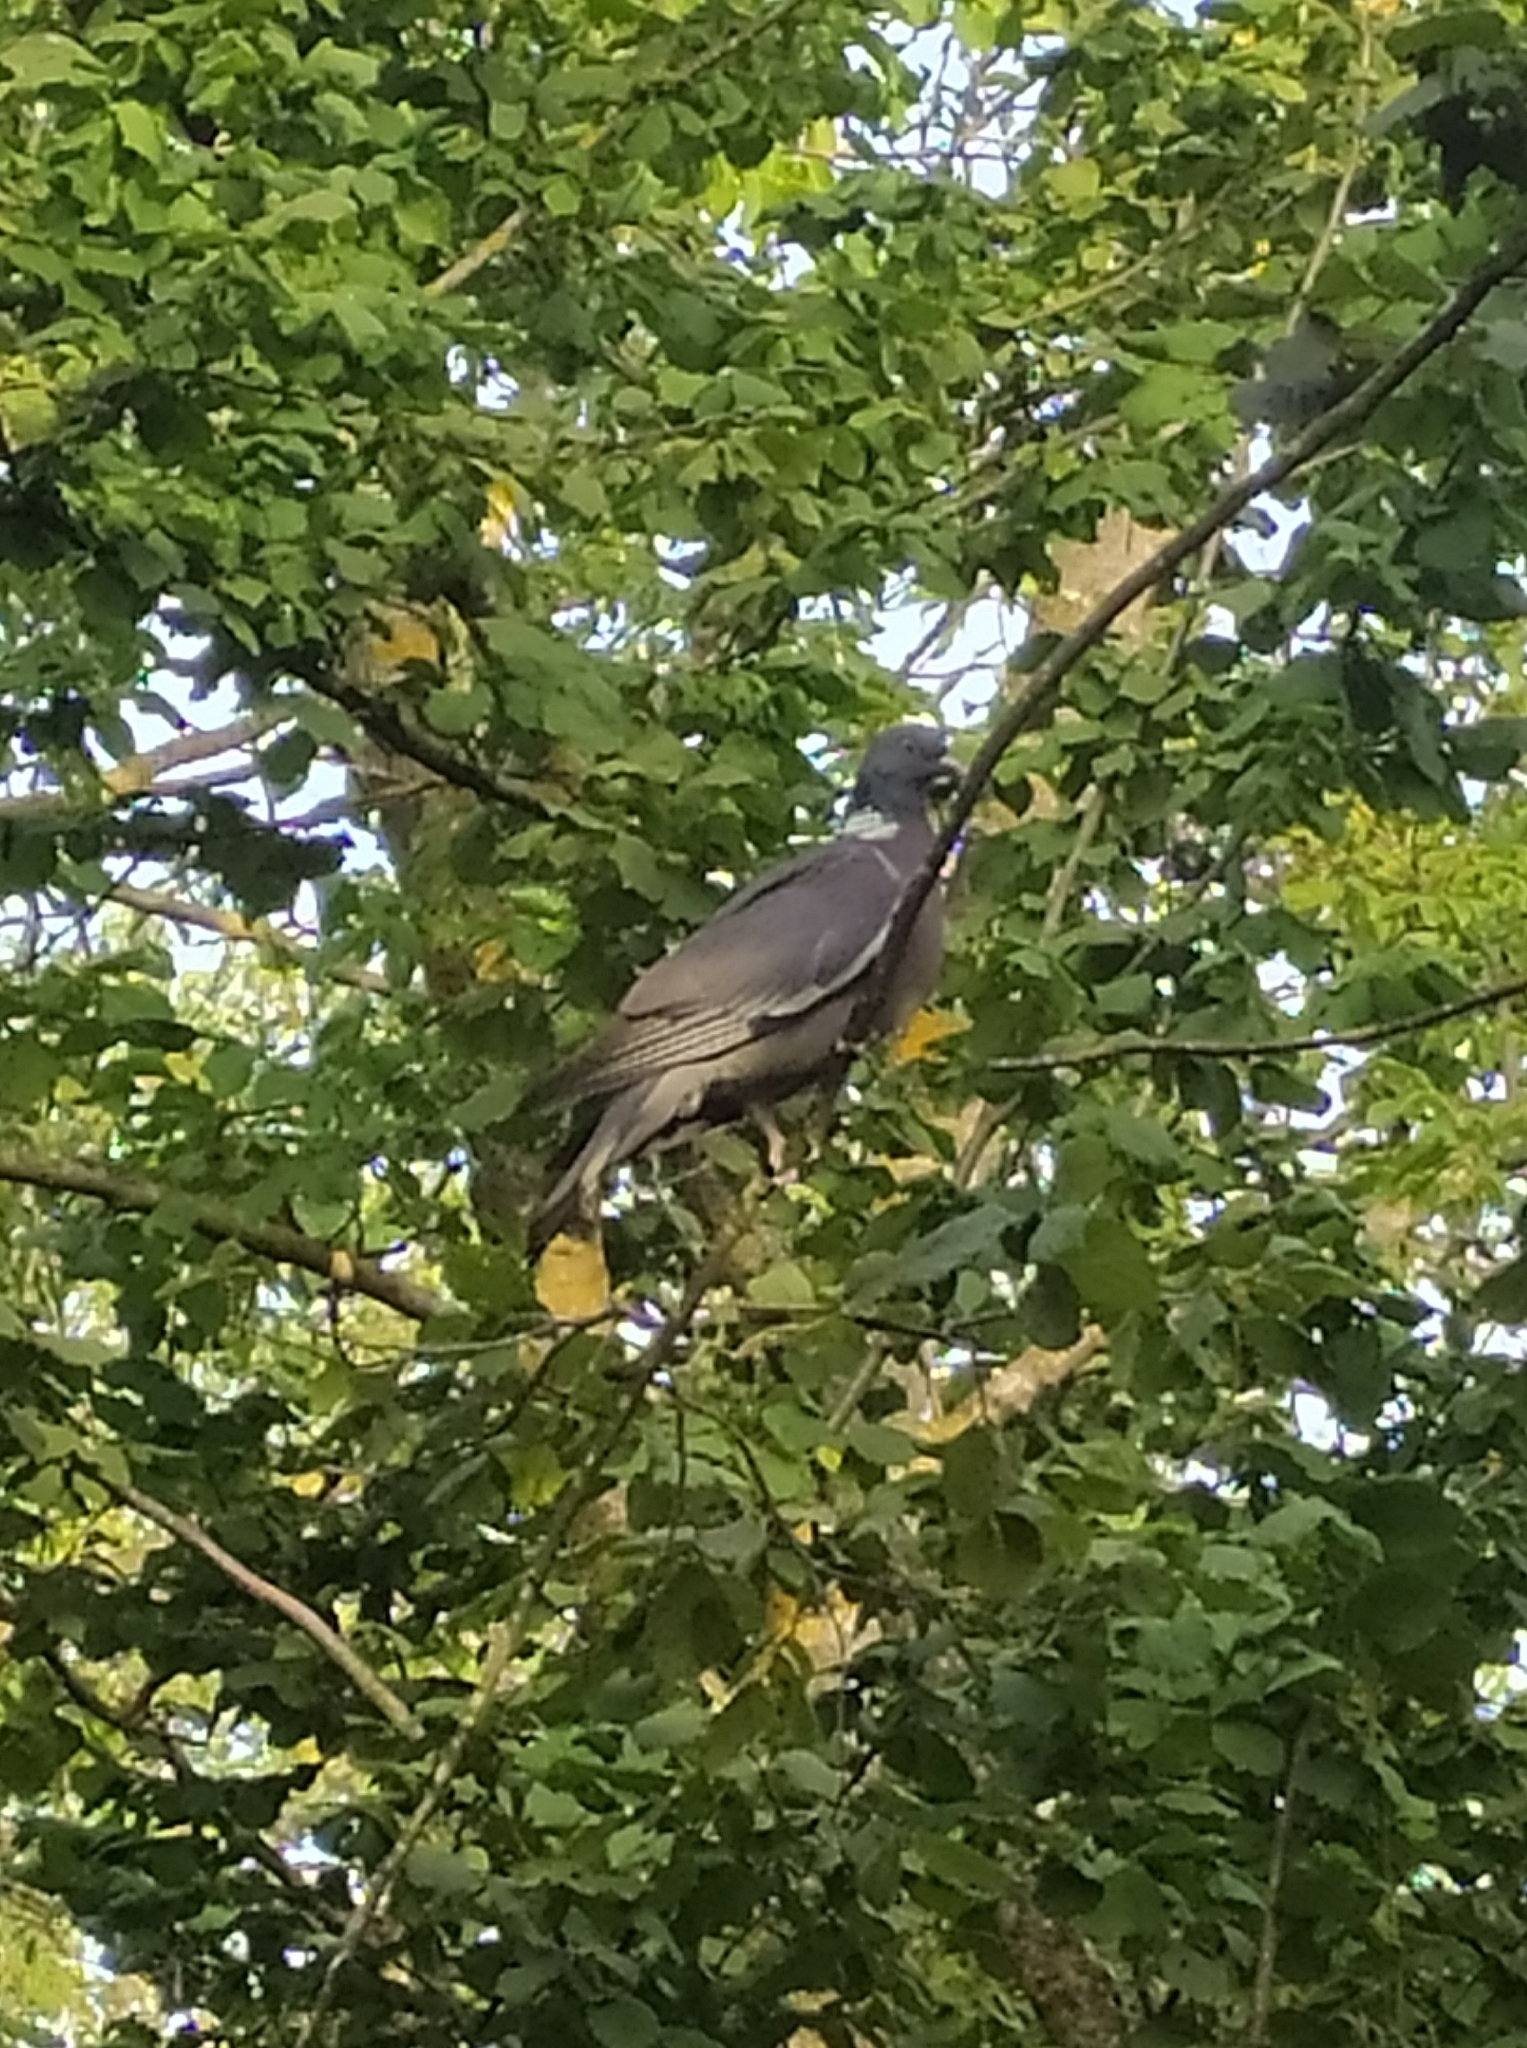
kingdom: Animalia
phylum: Chordata
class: Aves
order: Columbiformes
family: Columbidae
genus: Columba
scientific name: Columba palumbus
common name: Common wood pigeon
